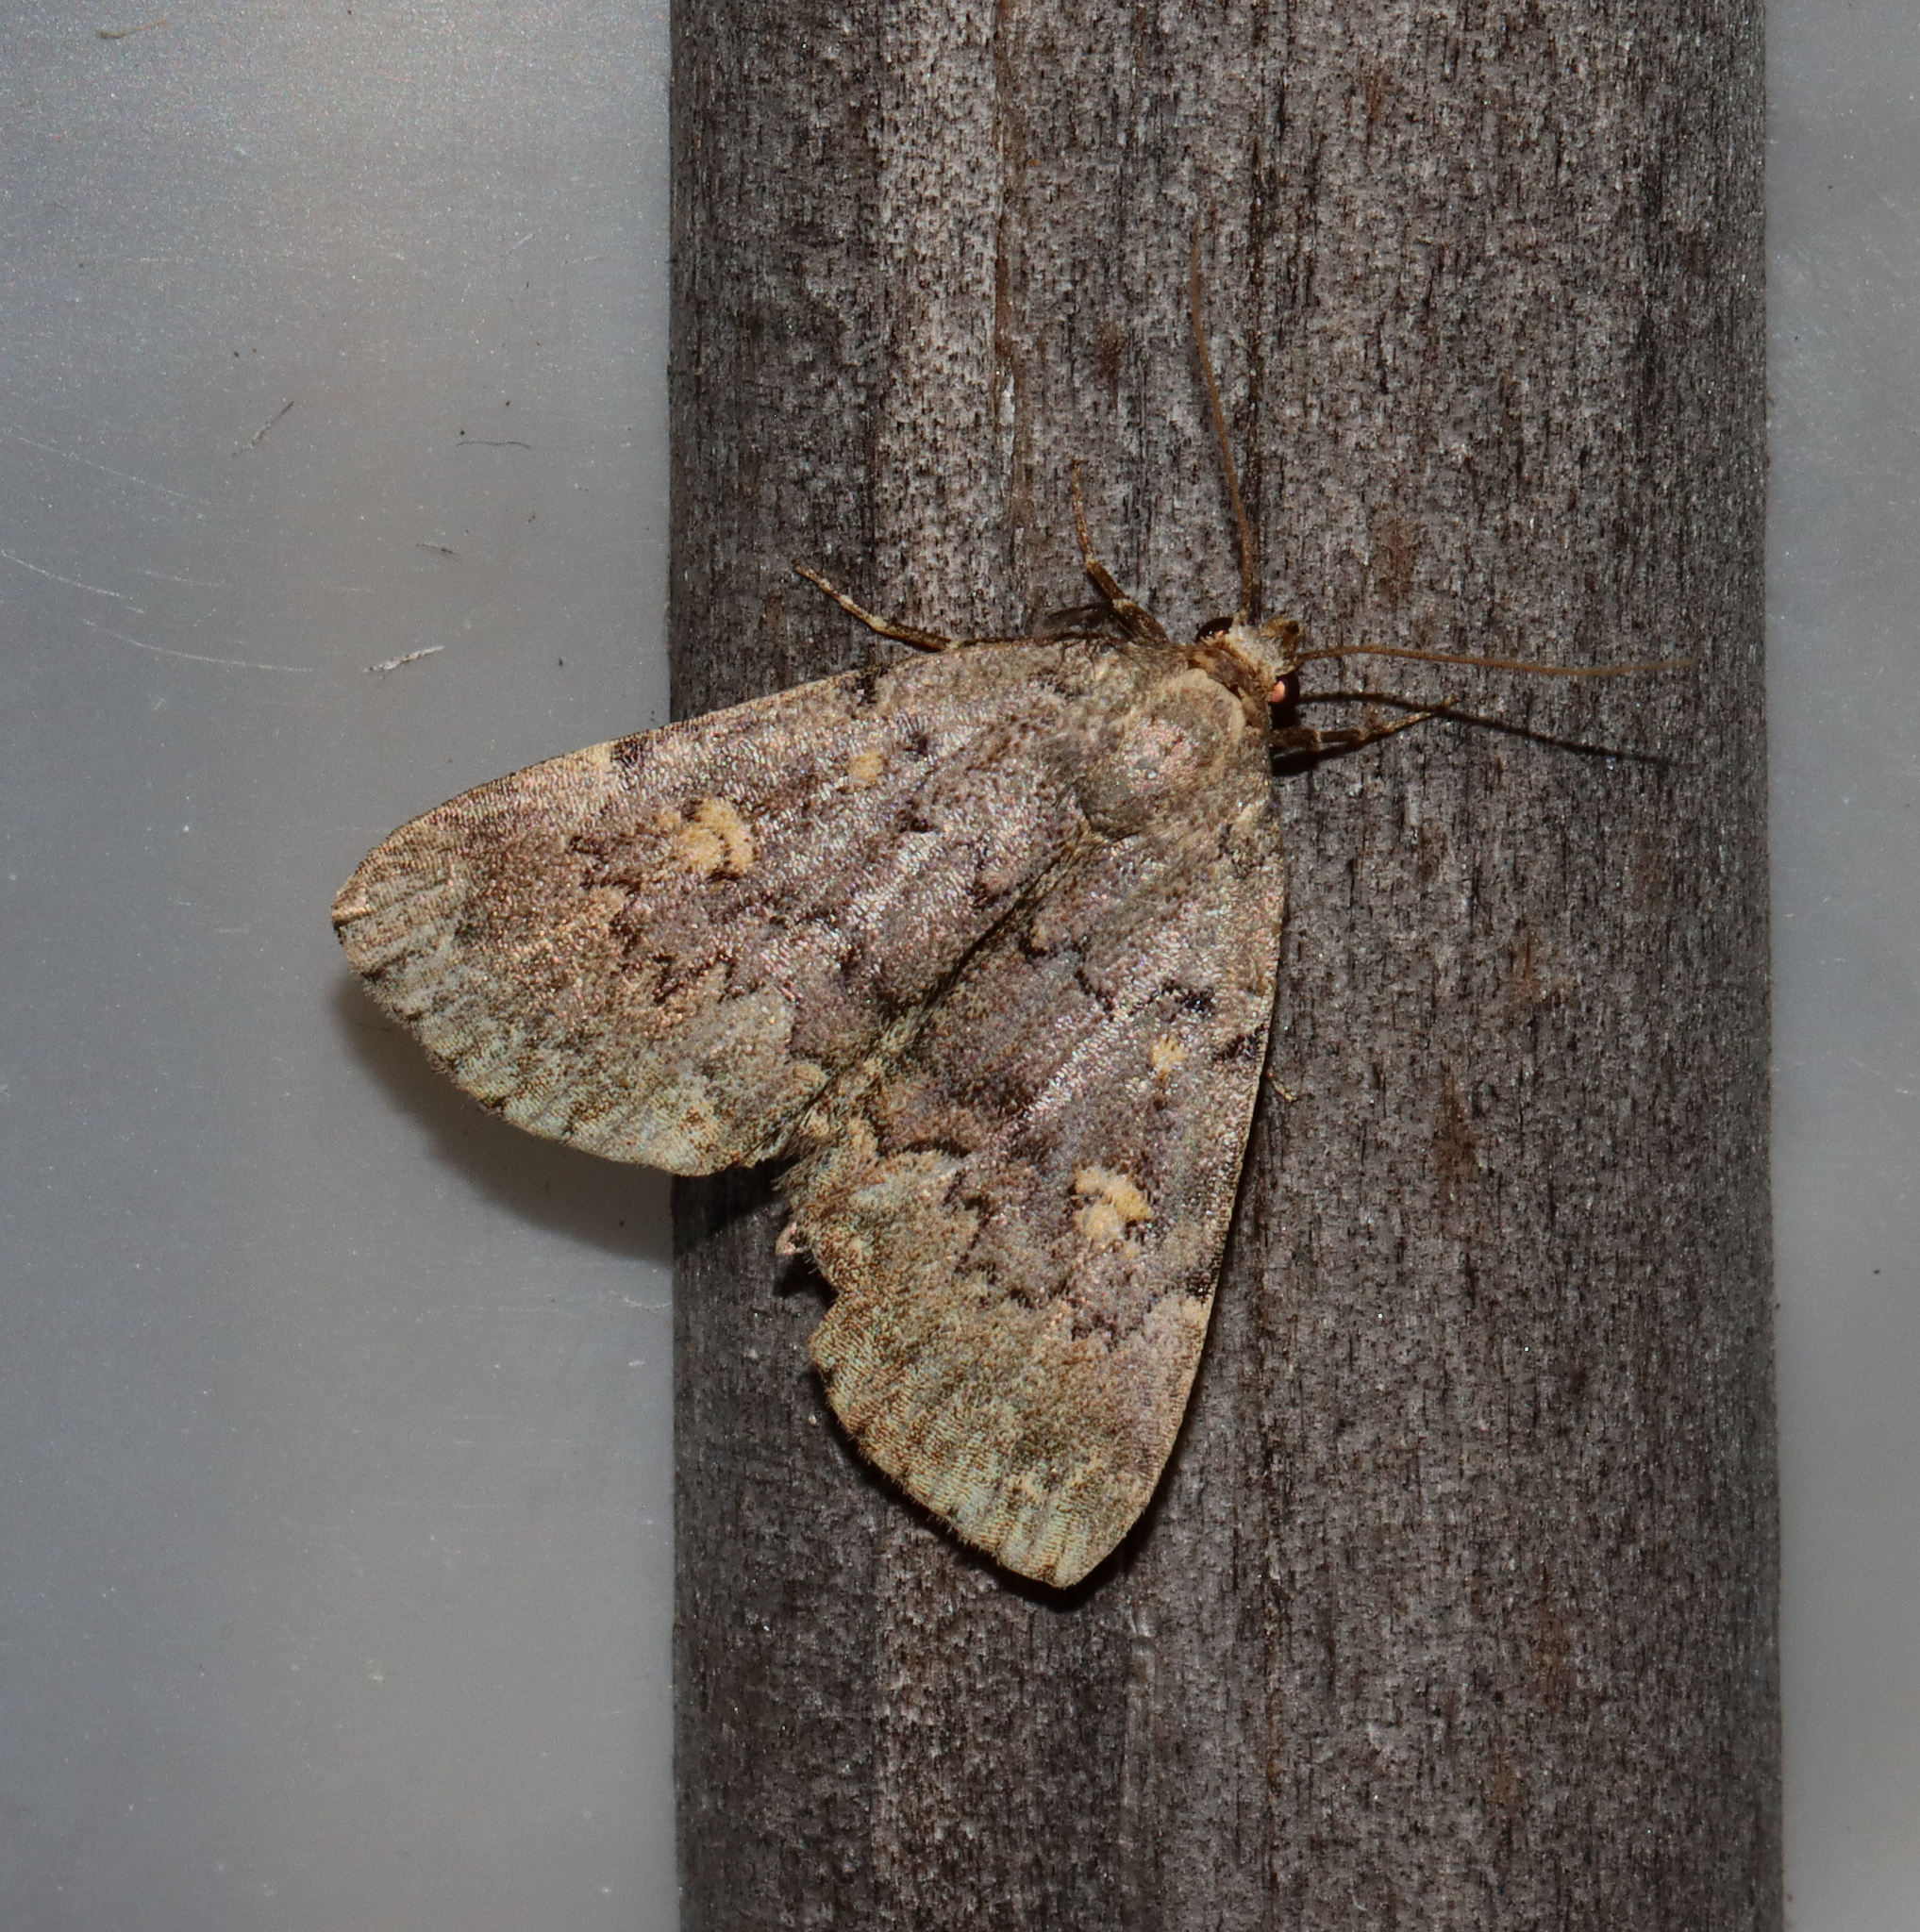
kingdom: Animalia
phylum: Arthropoda
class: Insecta
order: Lepidoptera
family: Erebidae
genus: Idia
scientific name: Idia aemula
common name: Common idia moth
